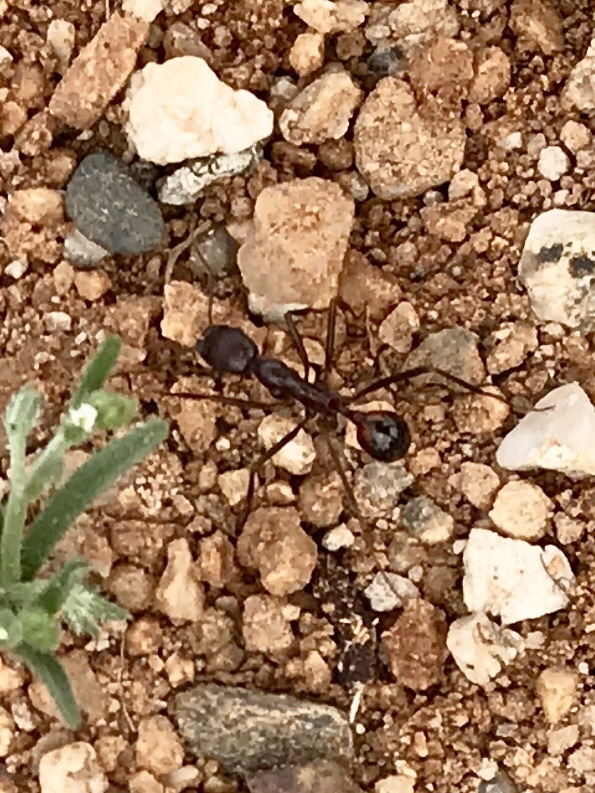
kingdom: Animalia
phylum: Arthropoda
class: Insecta
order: Hymenoptera
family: Formicidae
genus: Novomessor
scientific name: Novomessor cockerelli
